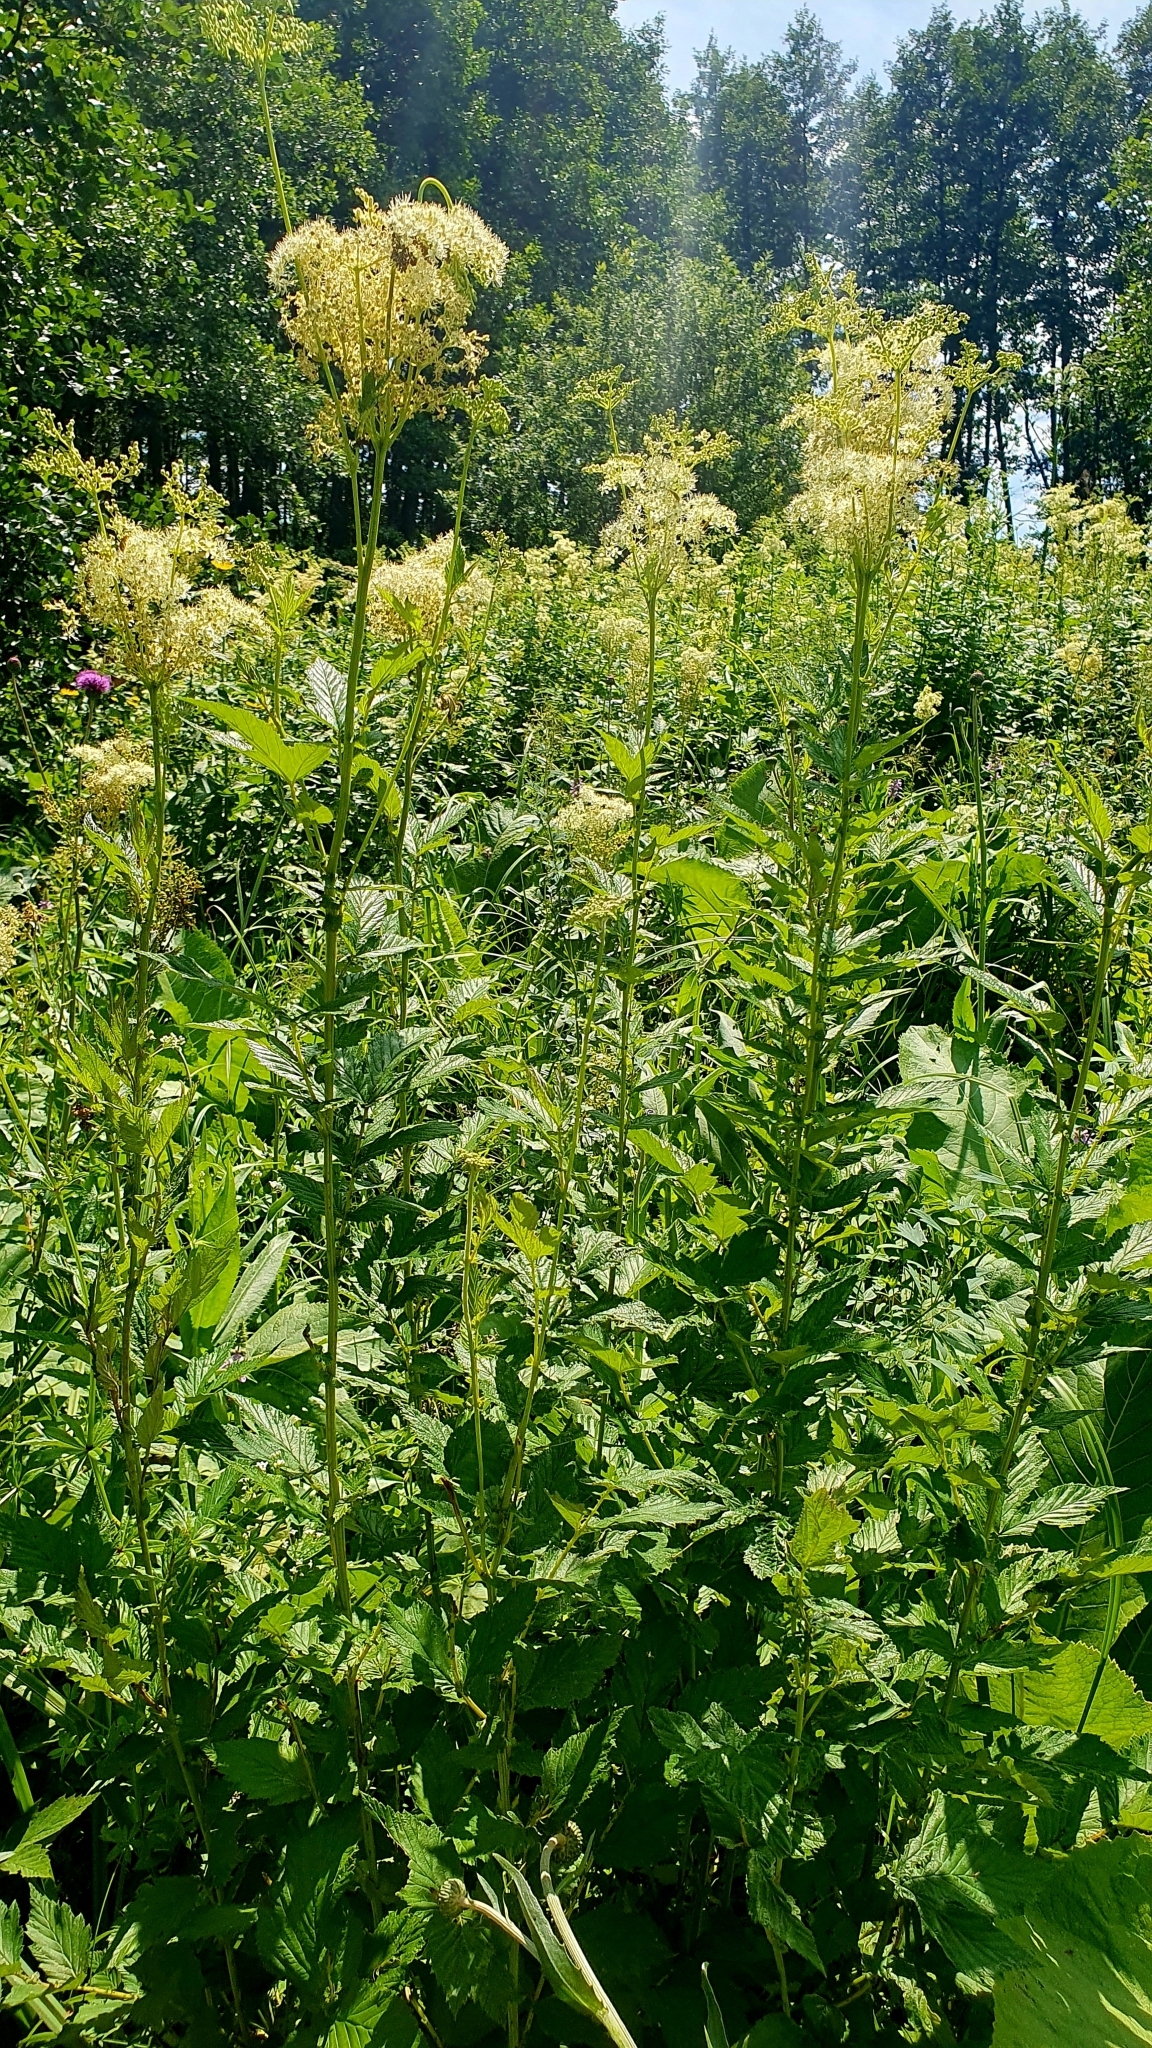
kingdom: Plantae
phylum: Tracheophyta
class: Magnoliopsida
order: Rosales
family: Rosaceae
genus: Filipendula
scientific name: Filipendula ulmaria
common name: Meadowsweet
